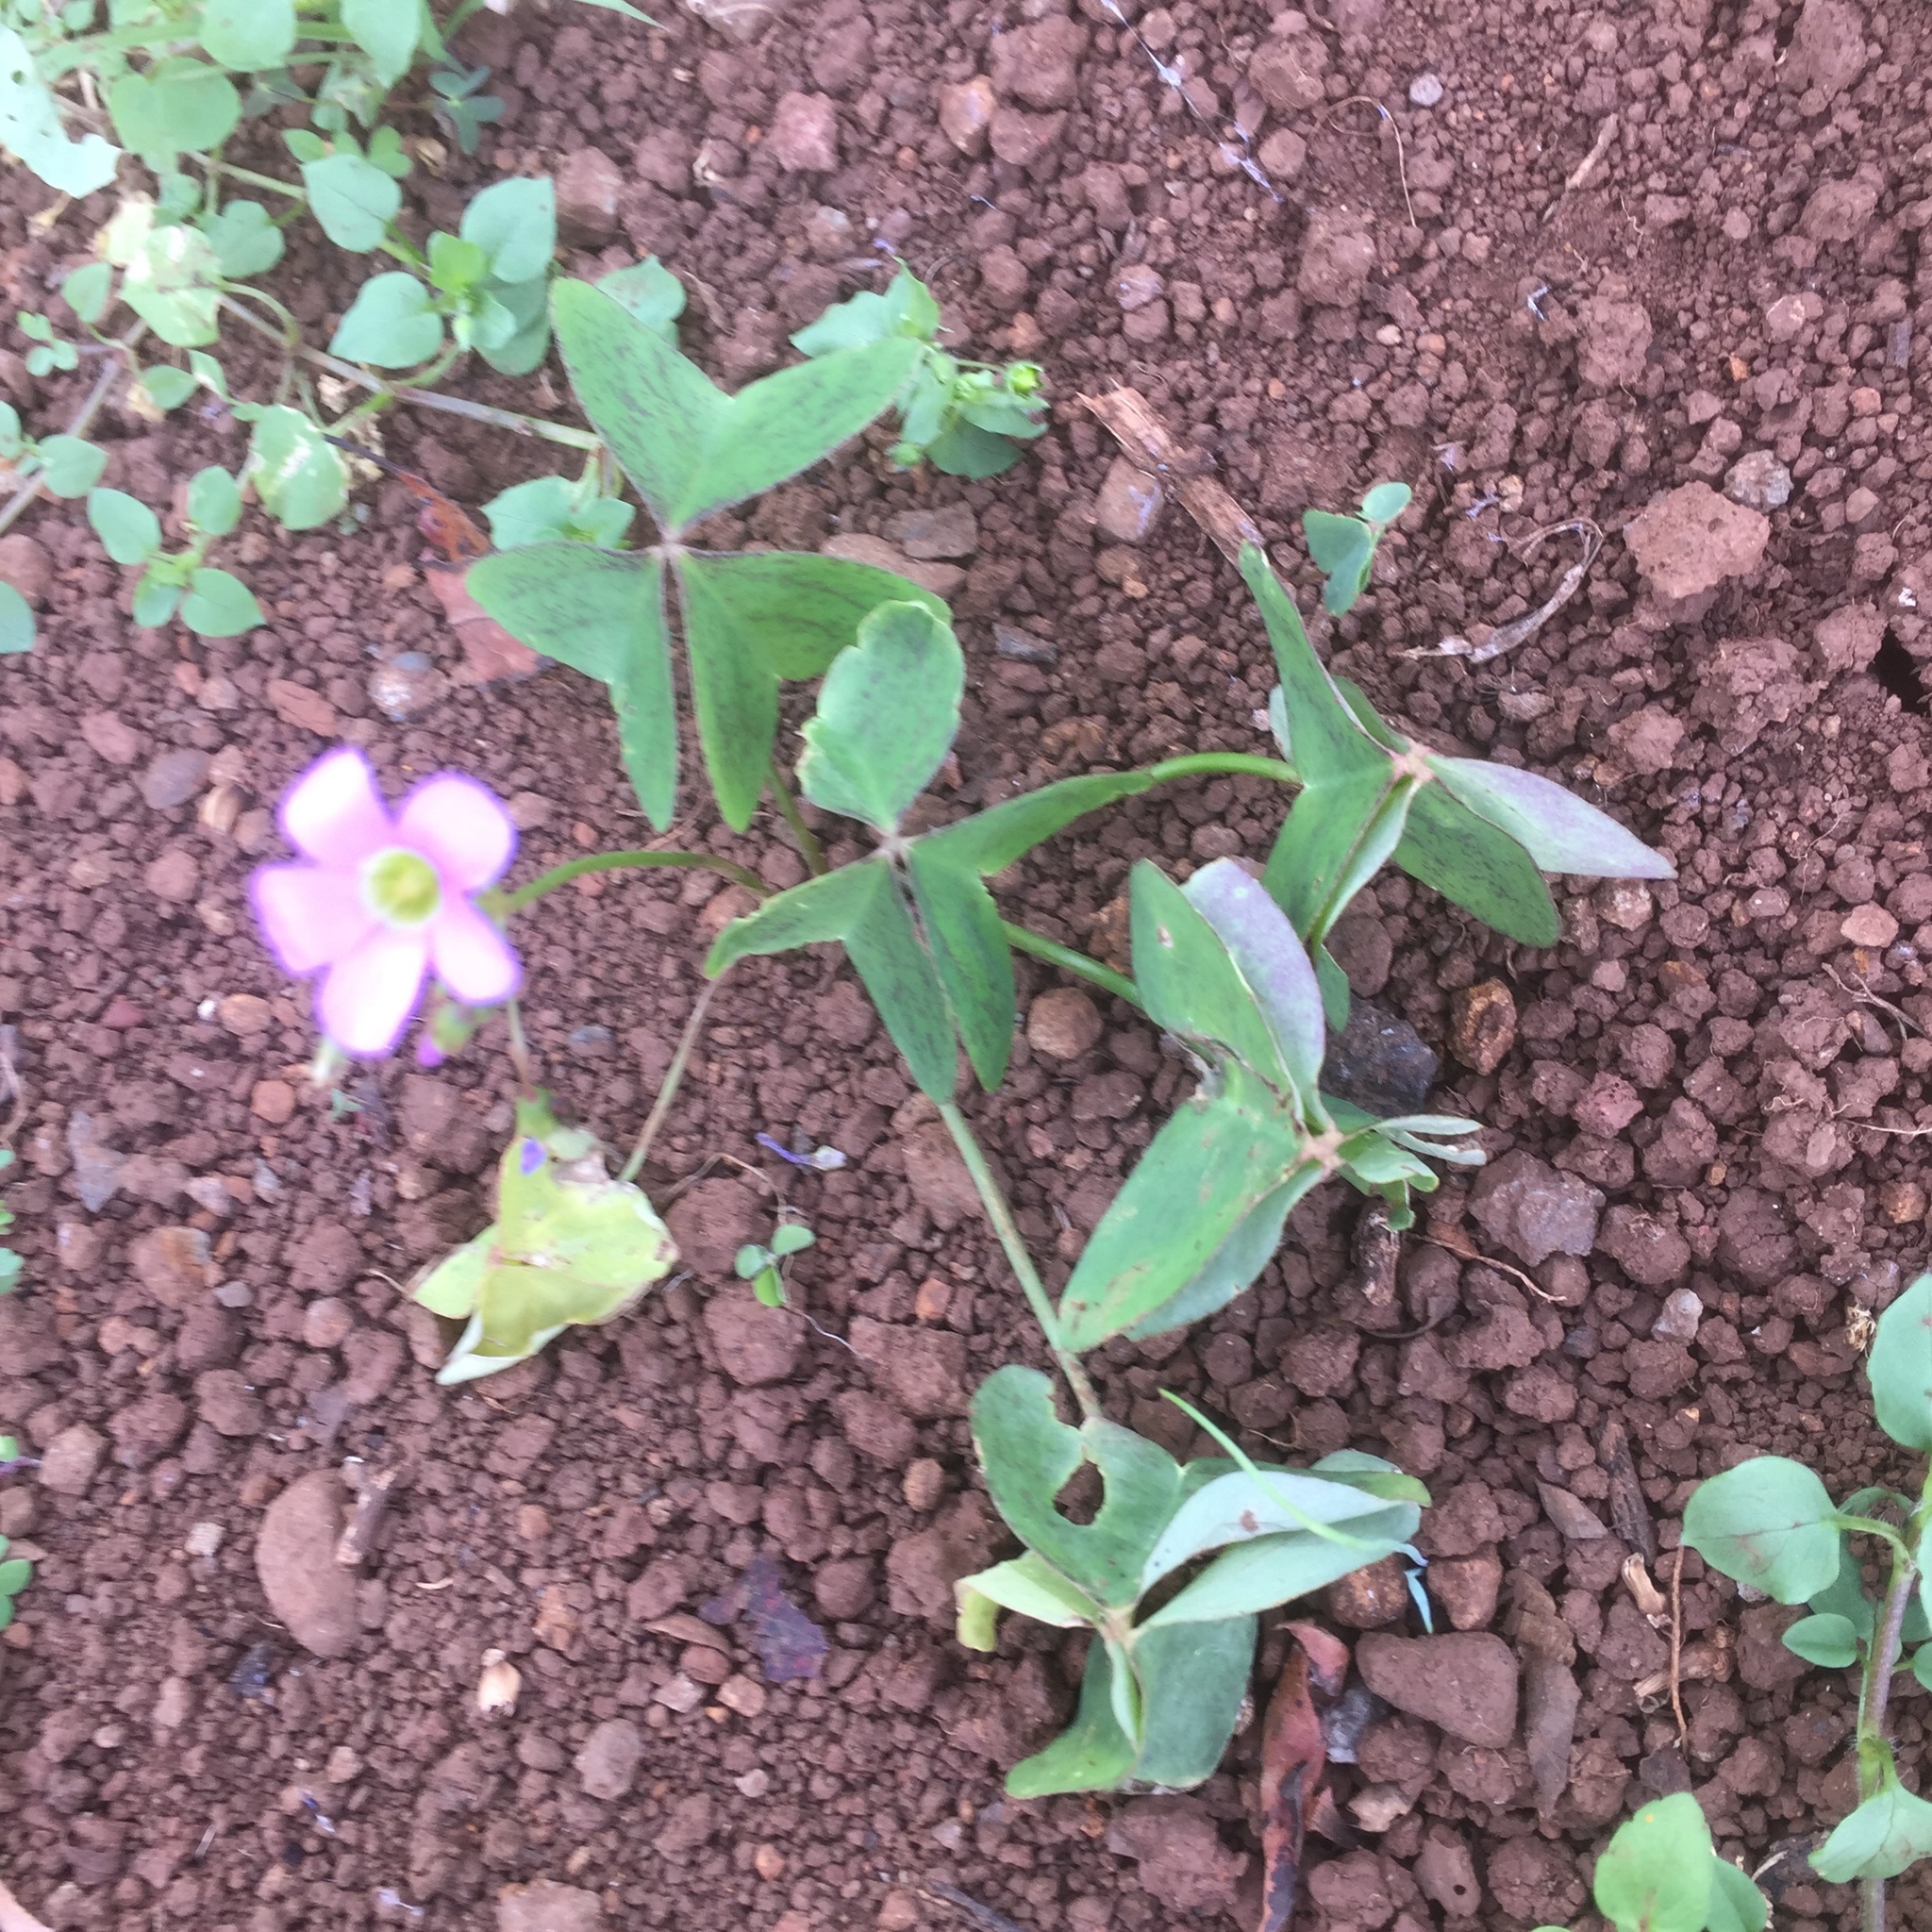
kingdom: Plantae
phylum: Tracheophyta
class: Magnoliopsida
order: Oxalidales
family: Oxalidaceae
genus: Oxalis
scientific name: Oxalis latifolia
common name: Garden pink-sorrel
